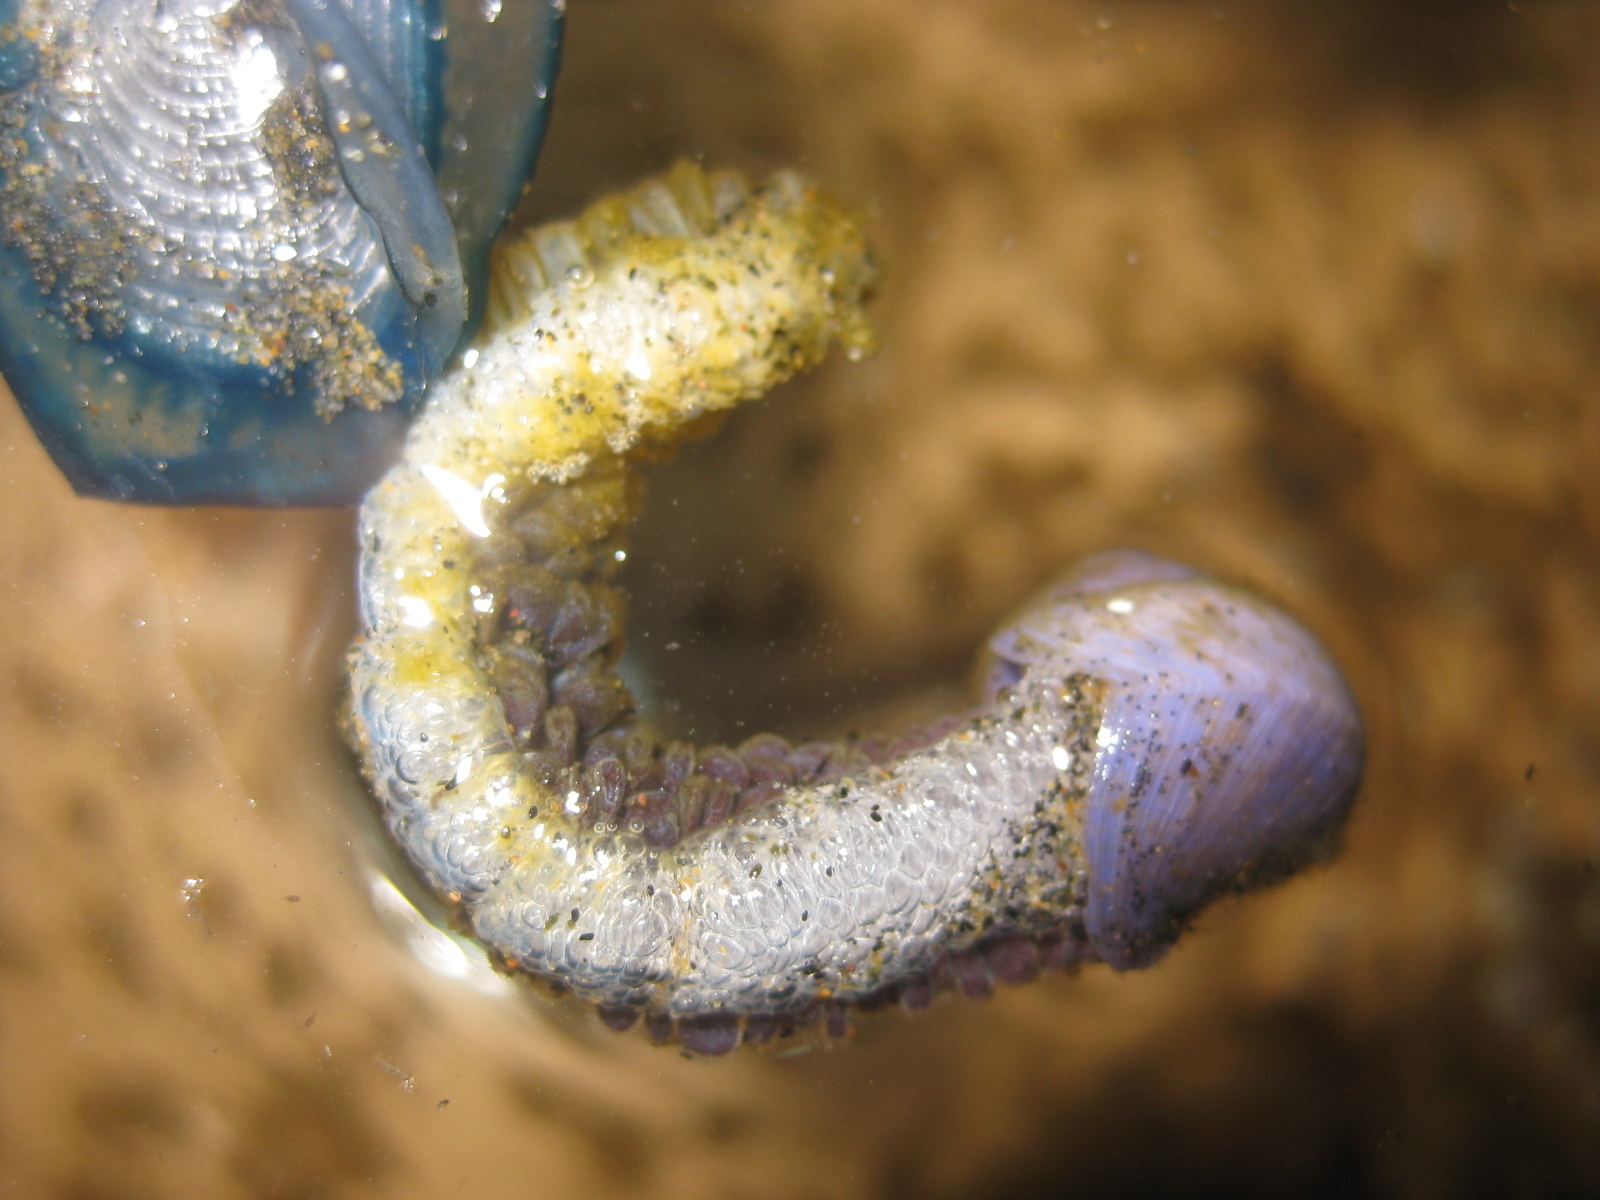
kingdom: Animalia
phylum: Mollusca
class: Gastropoda
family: Epitoniidae
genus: Janthina
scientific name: Janthina exigua
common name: Dwarf janthina
